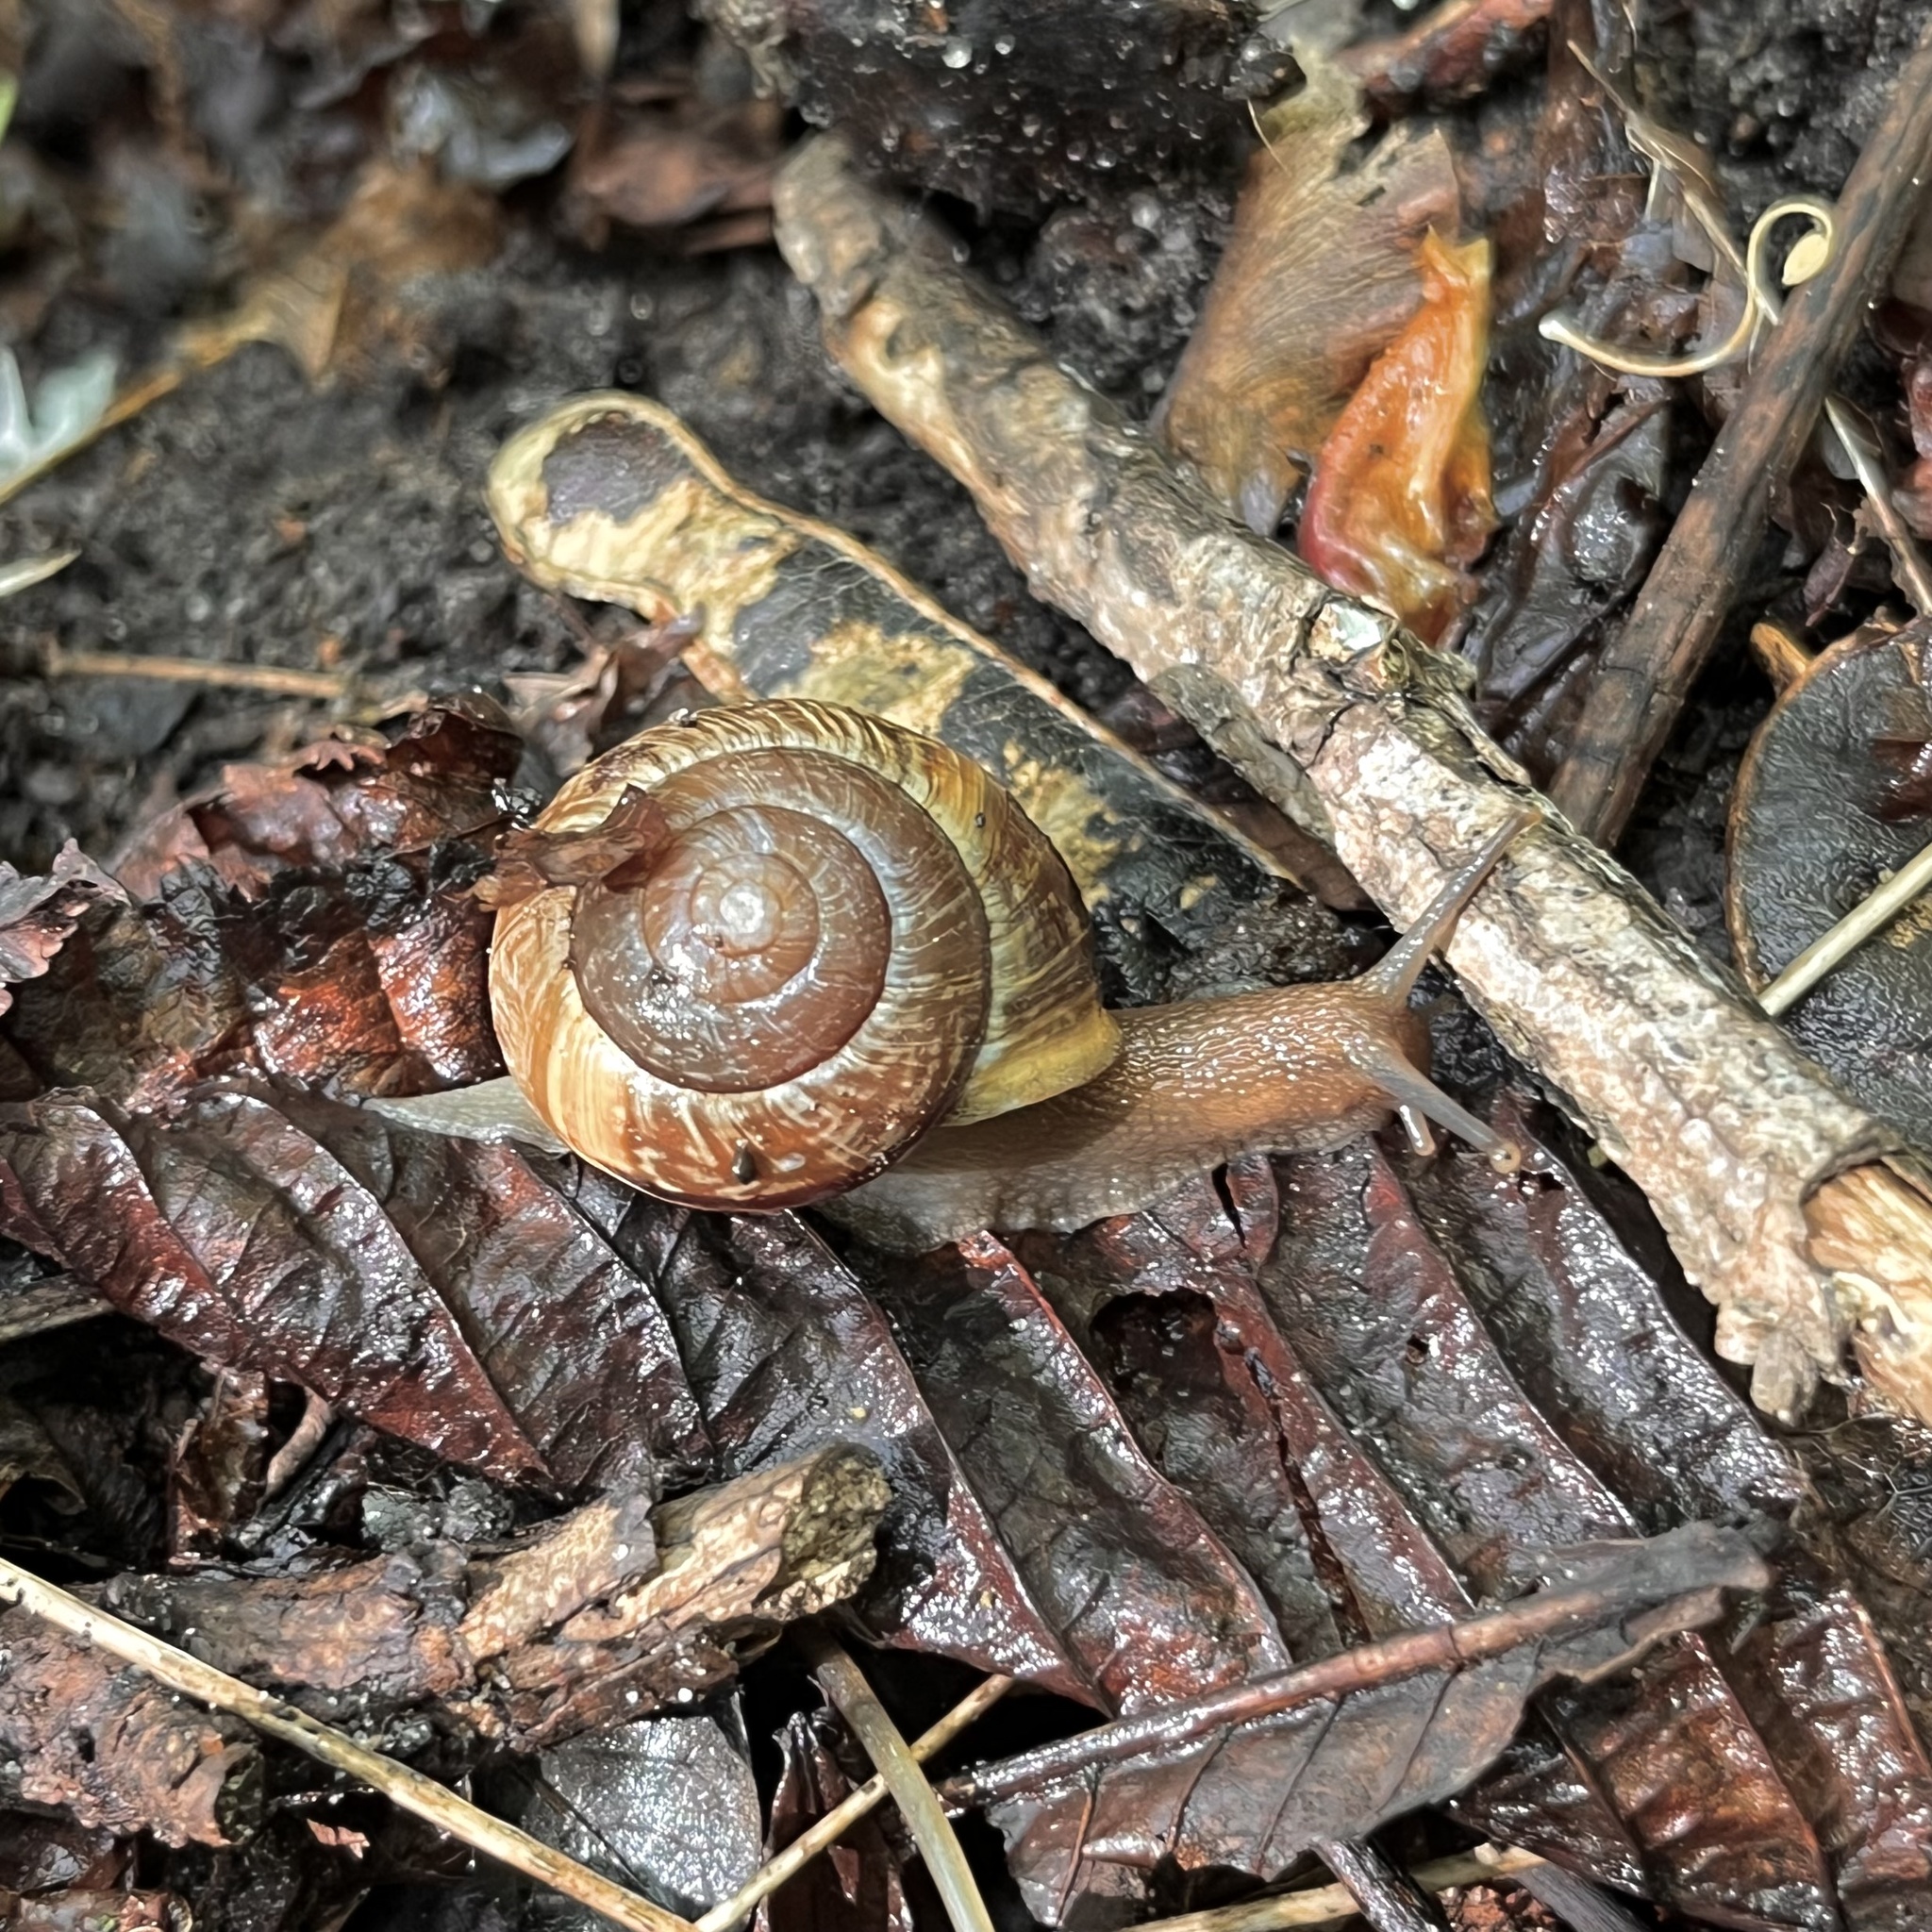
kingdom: Animalia
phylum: Mollusca
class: Gastropoda
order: Stylommatophora
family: Helicidae
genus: Arianta
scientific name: Arianta arbustorum
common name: Copse snail
